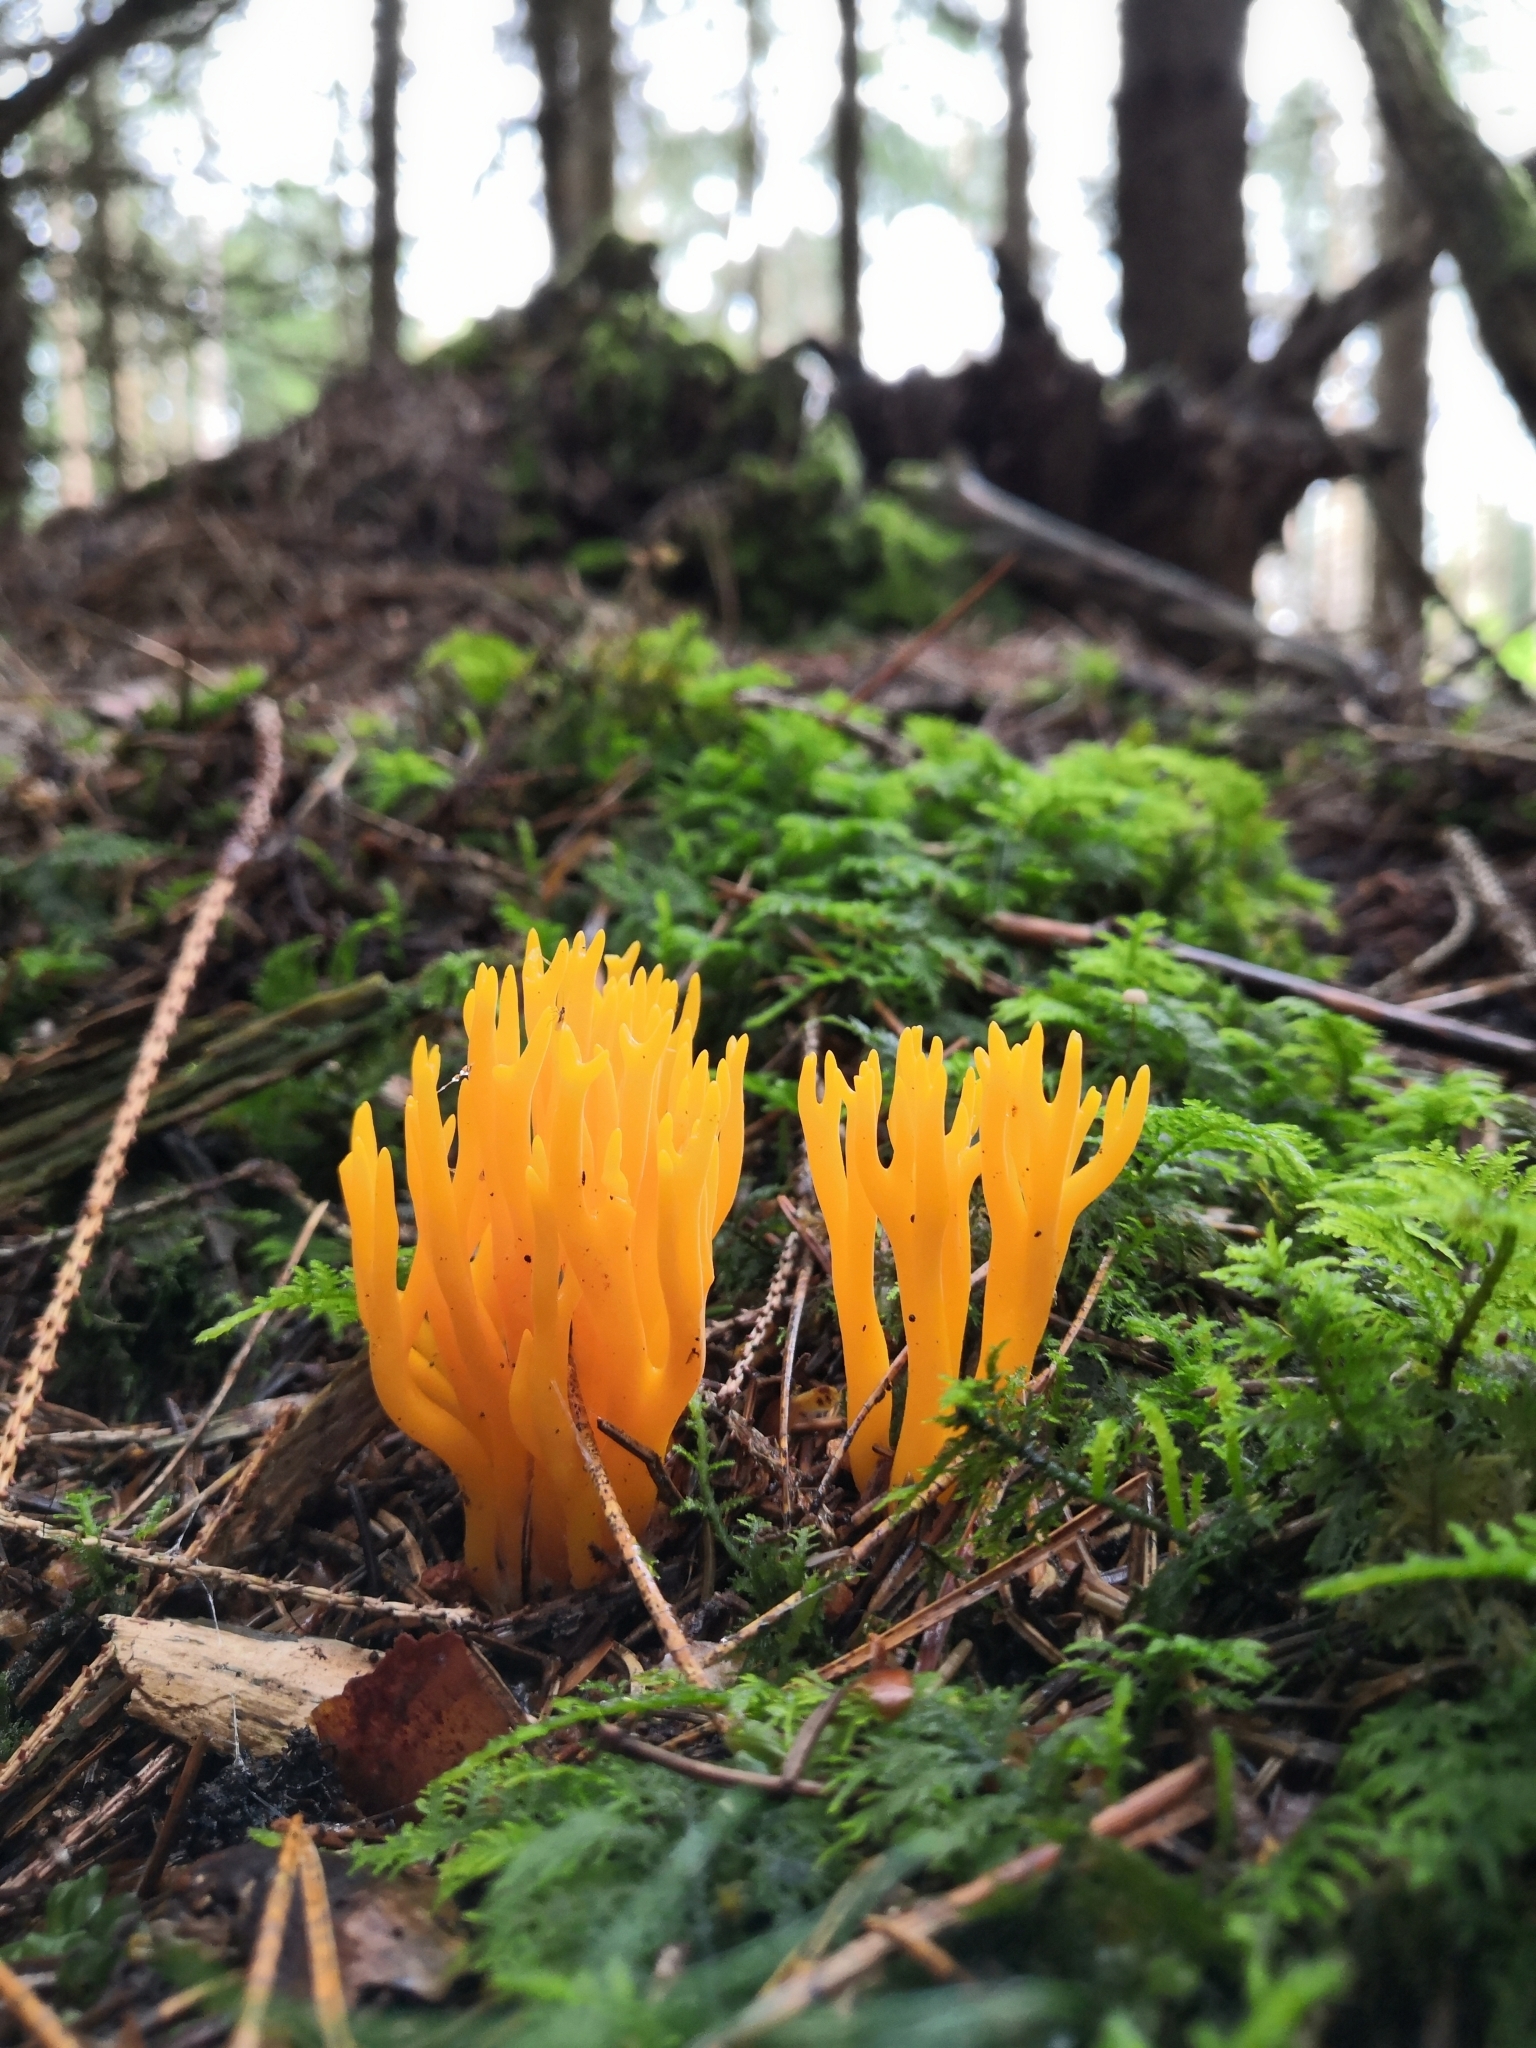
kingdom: Fungi
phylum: Basidiomycota
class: Dacrymycetes
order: Dacrymycetales
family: Dacrymycetaceae
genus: Calocera
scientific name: Calocera viscosa
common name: Yellow stagshorn
